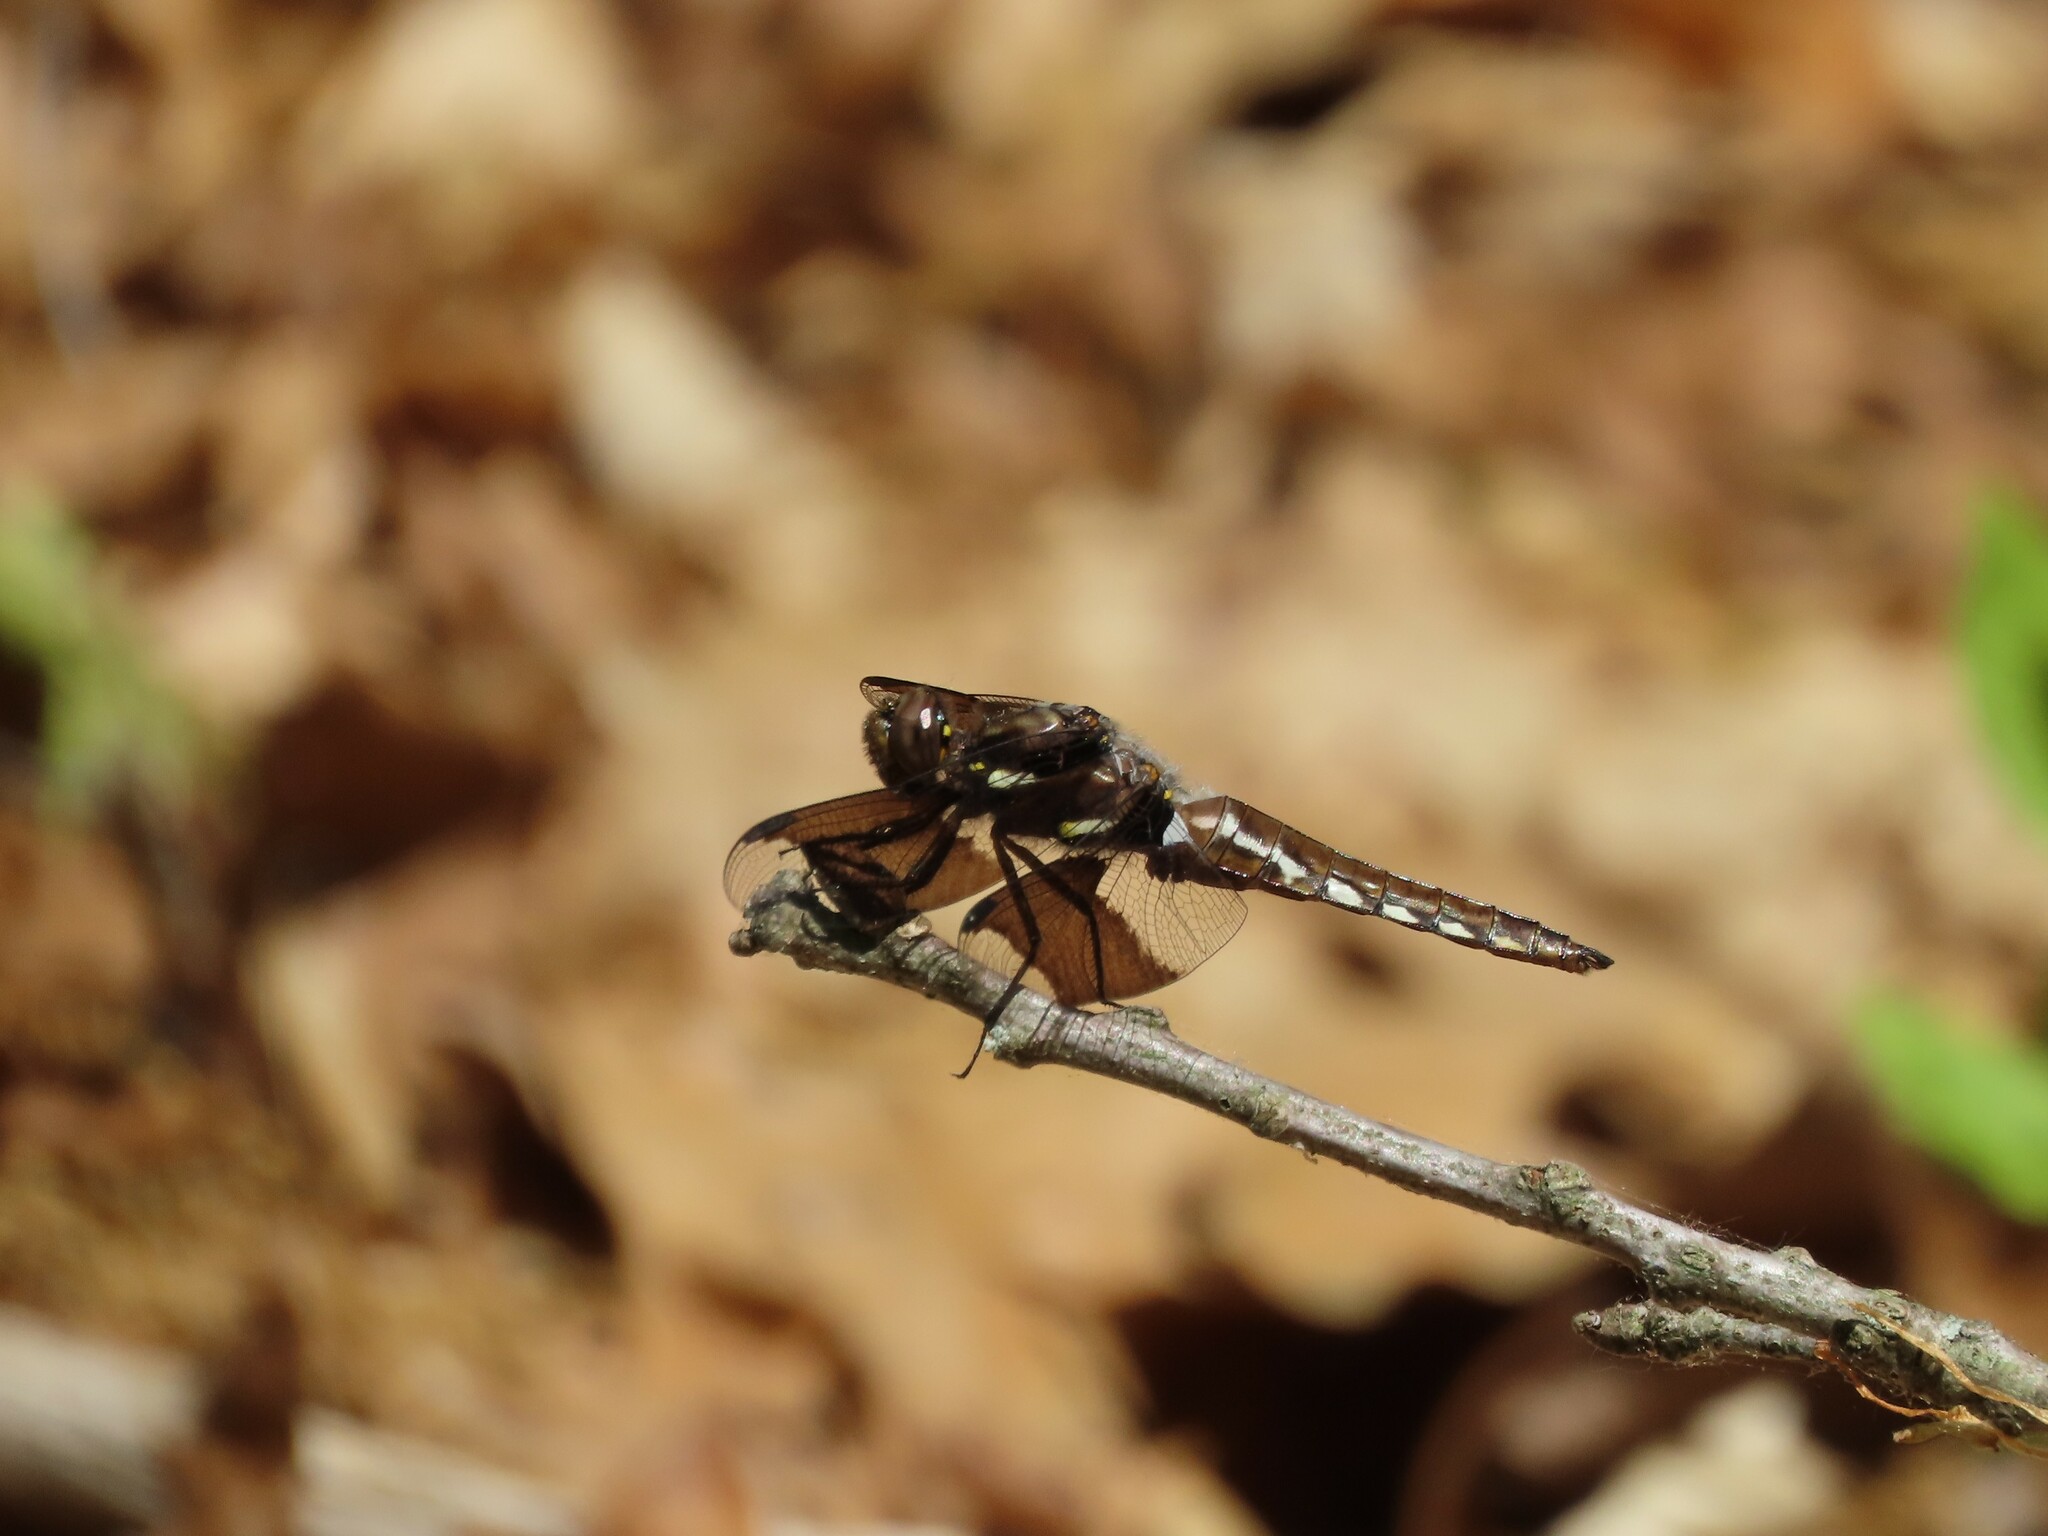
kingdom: Animalia
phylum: Arthropoda
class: Insecta
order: Odonata
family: Libellulidae
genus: Plathemis
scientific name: Plathemis lydia
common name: Common whitetail
